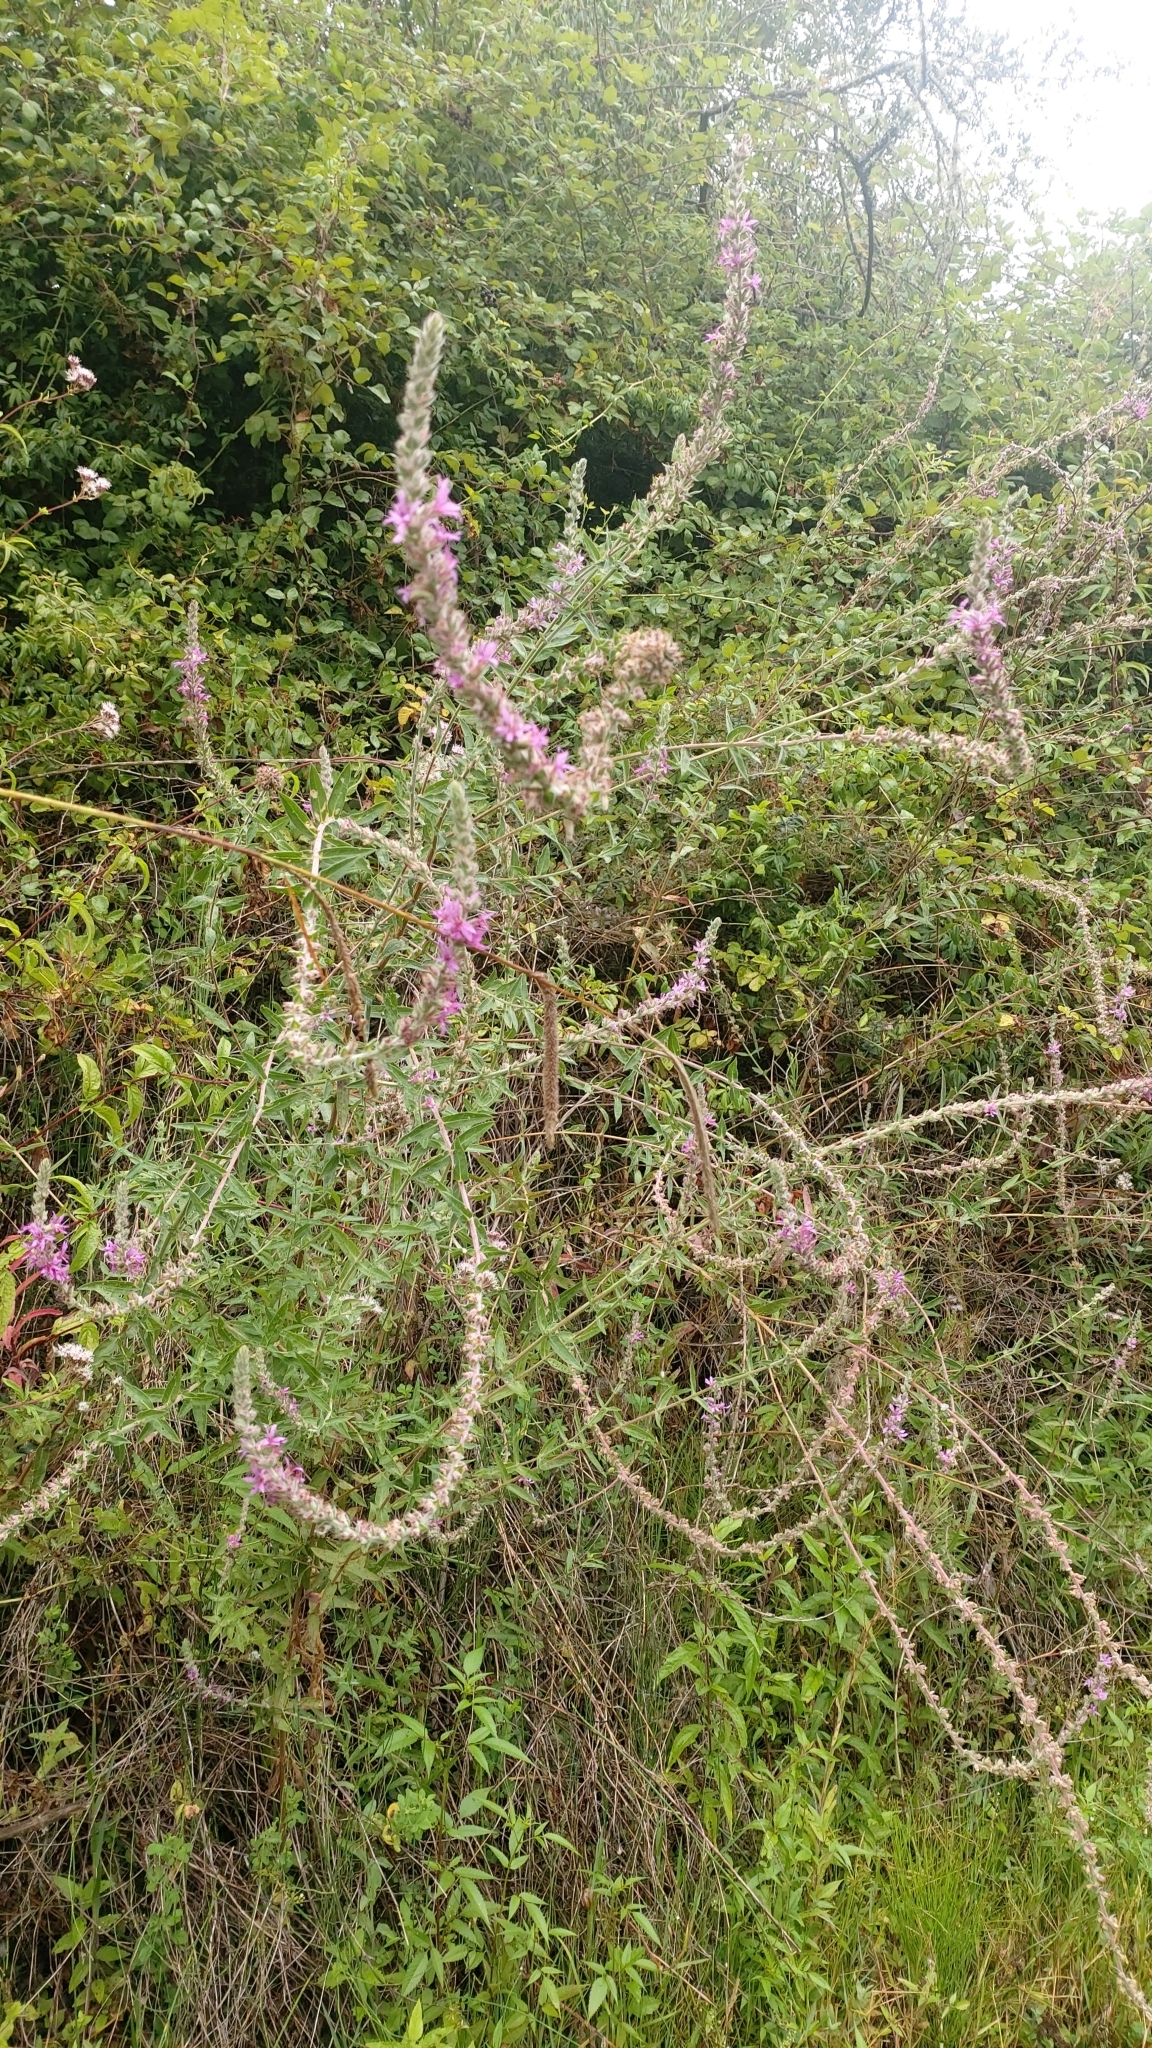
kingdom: Plantae
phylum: Tracheophyta
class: Magnoliopsida
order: Myrtales
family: Lythraceae
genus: Lythrum
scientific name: Lythrum salicaria
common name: Purple loosestrife
